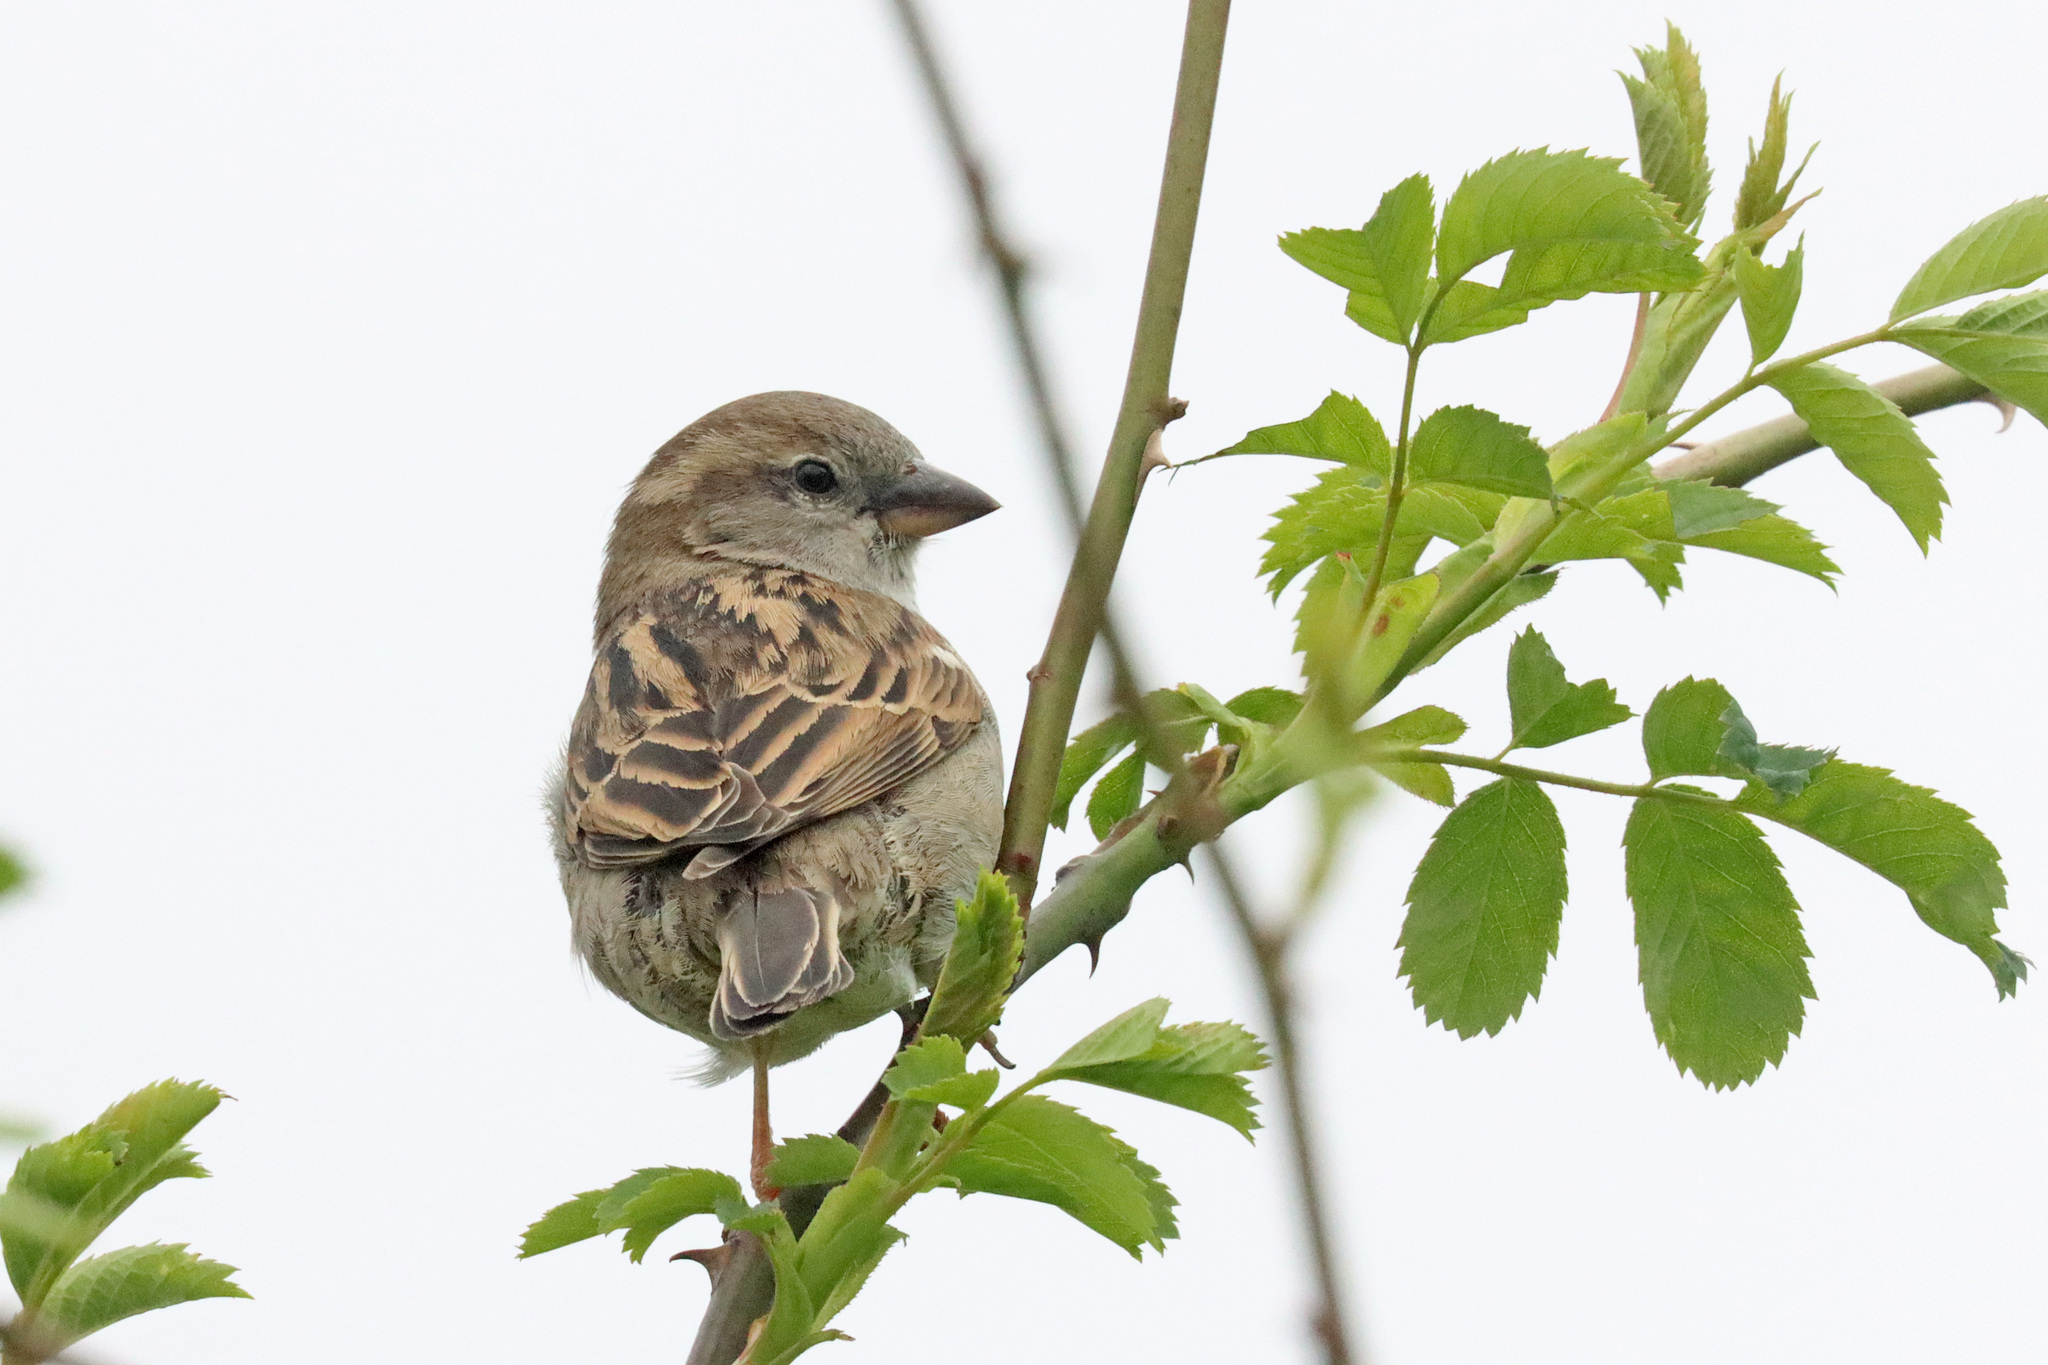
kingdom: Animalia
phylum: Chordata
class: Aves
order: Passeriformes
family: Passeridae
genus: Passer
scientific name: Passer domesticus
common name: House sparrow
